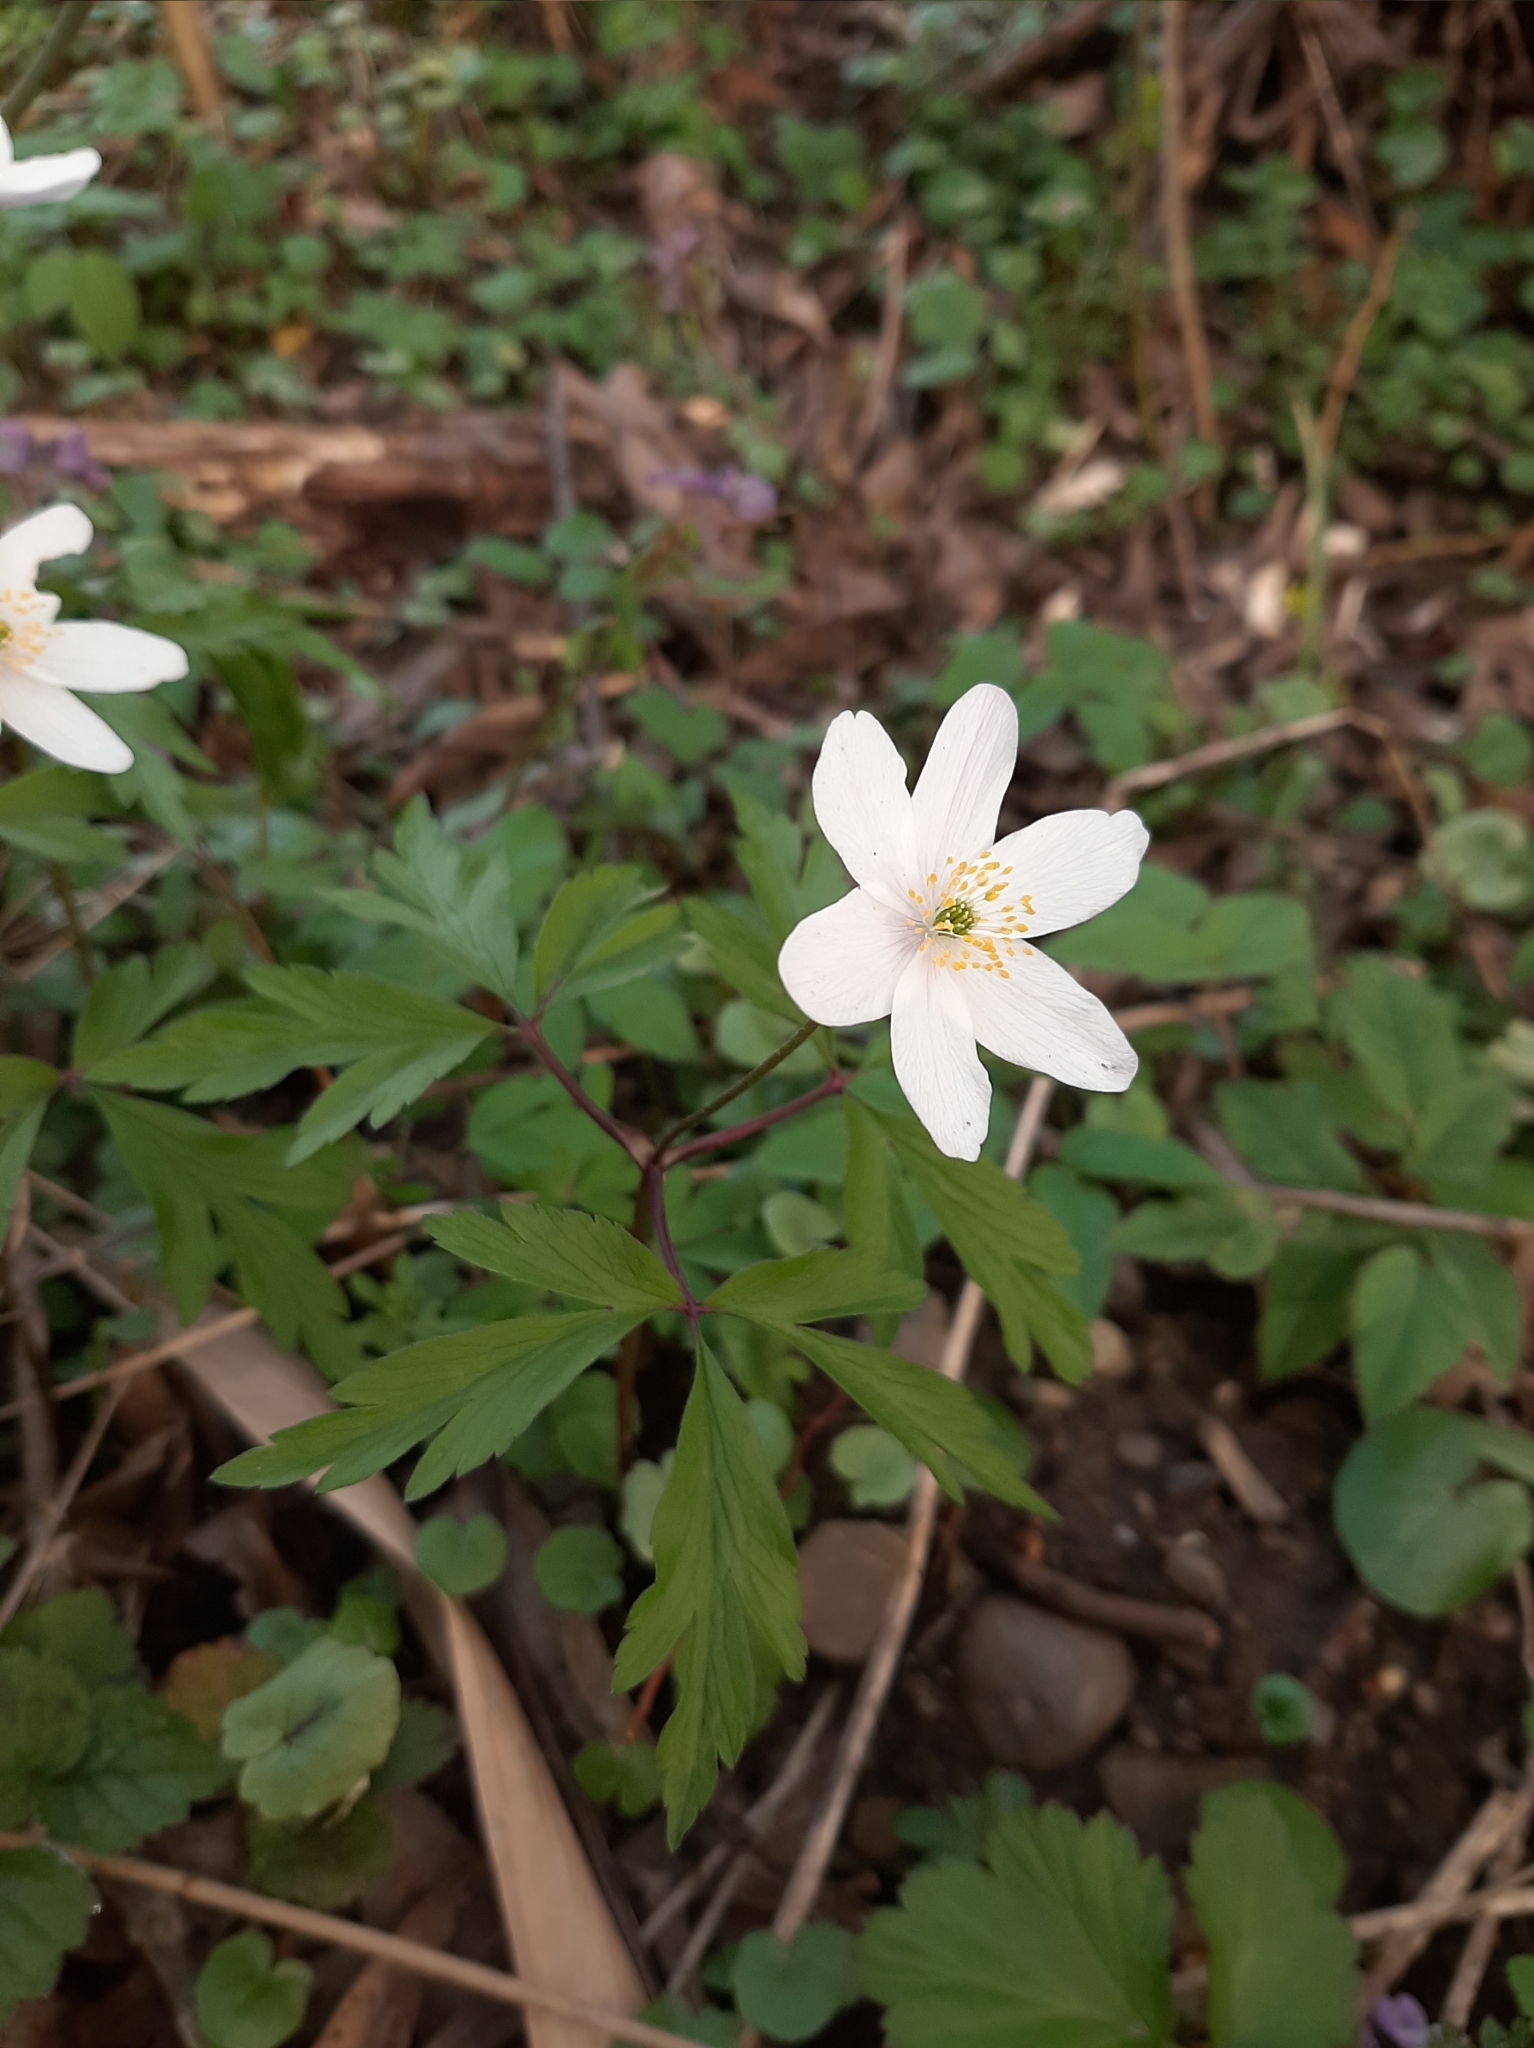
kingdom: Plantae
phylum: Tracheophyta
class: Magnoliopsida
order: Ranunculales
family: Ranunculaceae
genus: Anemone
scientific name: Anemone nemorosa
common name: Wood anemone
